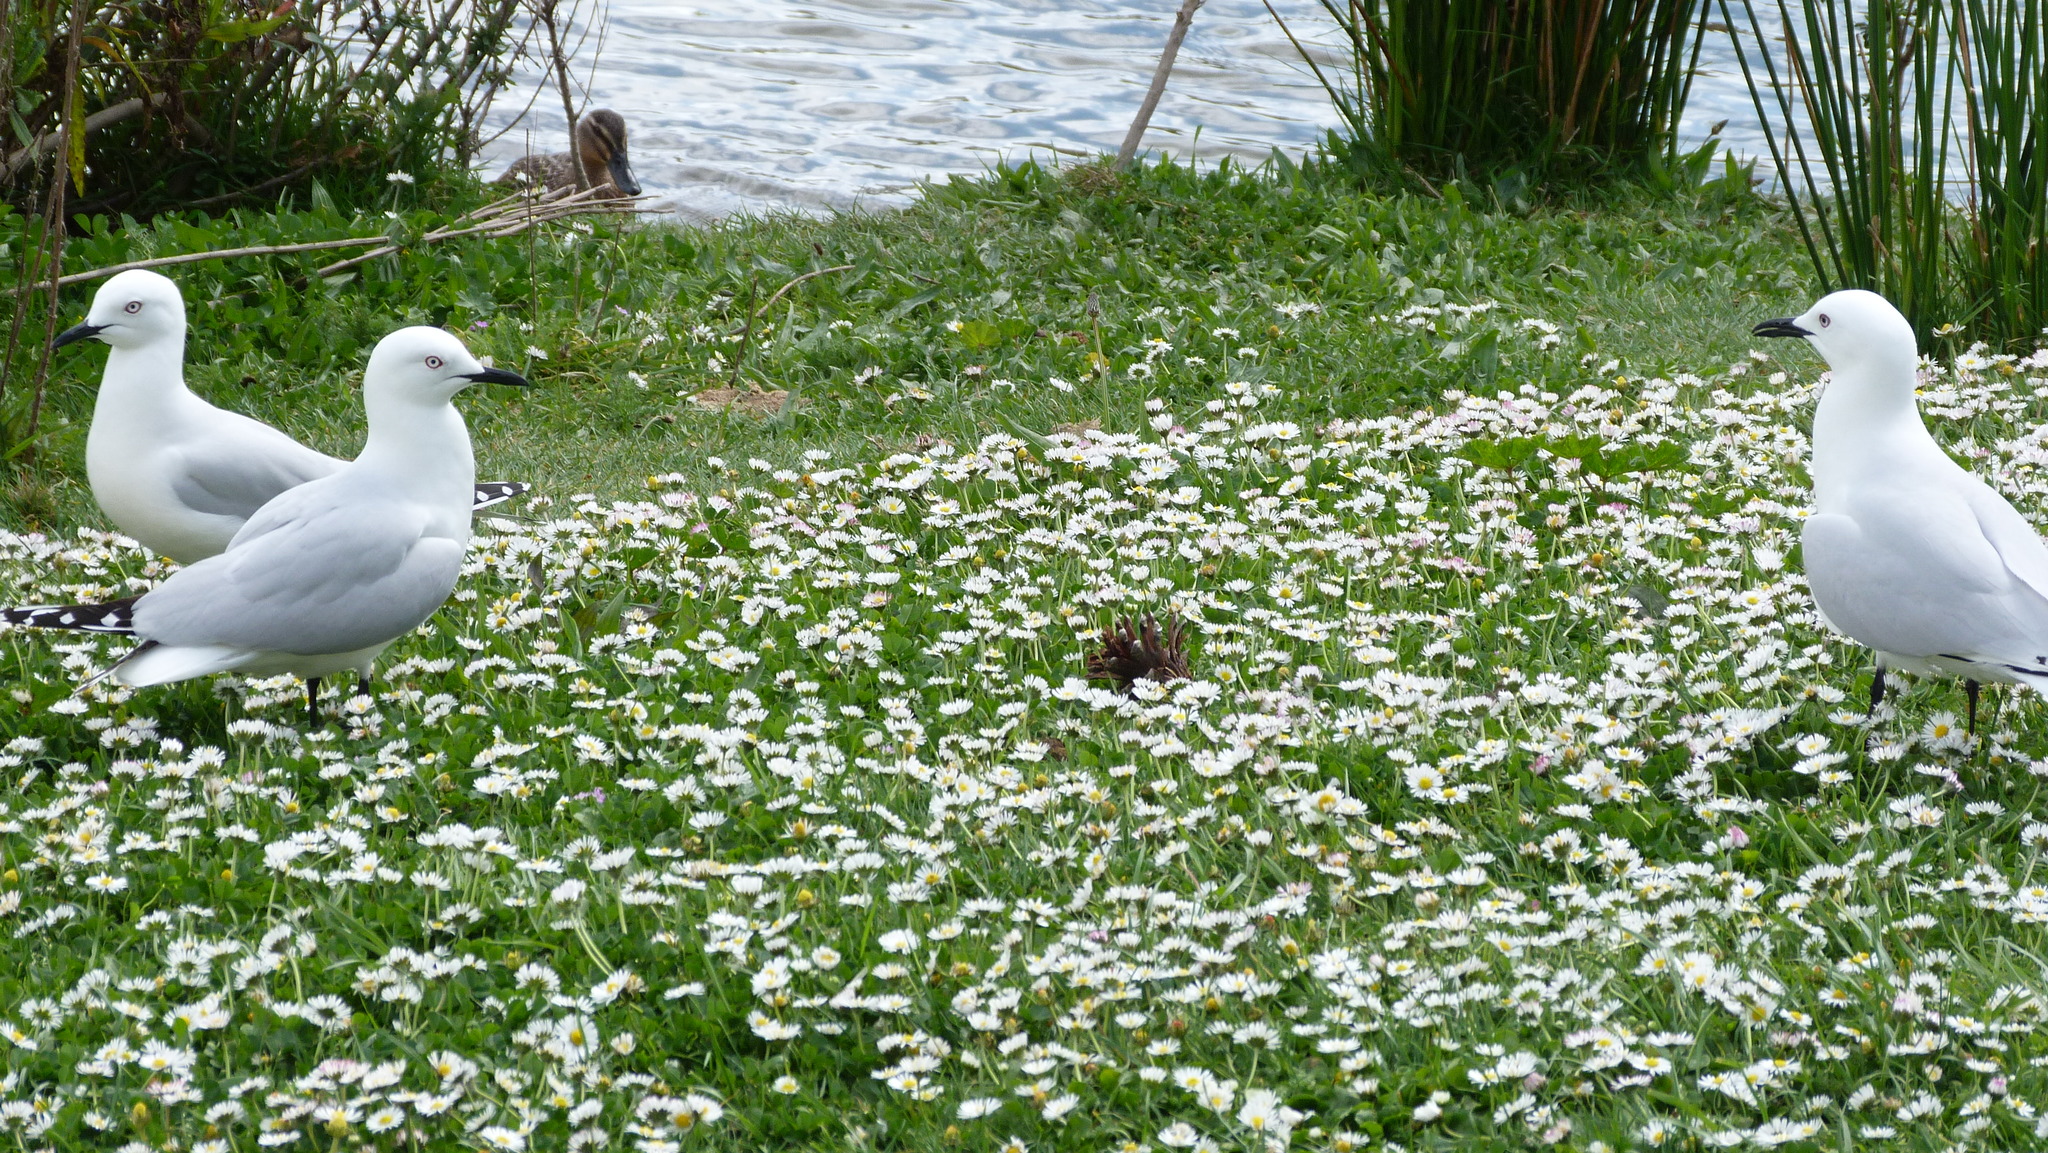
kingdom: Animalia
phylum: Chordata
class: Aves
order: Charadriiformes
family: Laridae
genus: Chroicocephalus
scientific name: Chroicocephalus bulleri
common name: Black-billed gull
